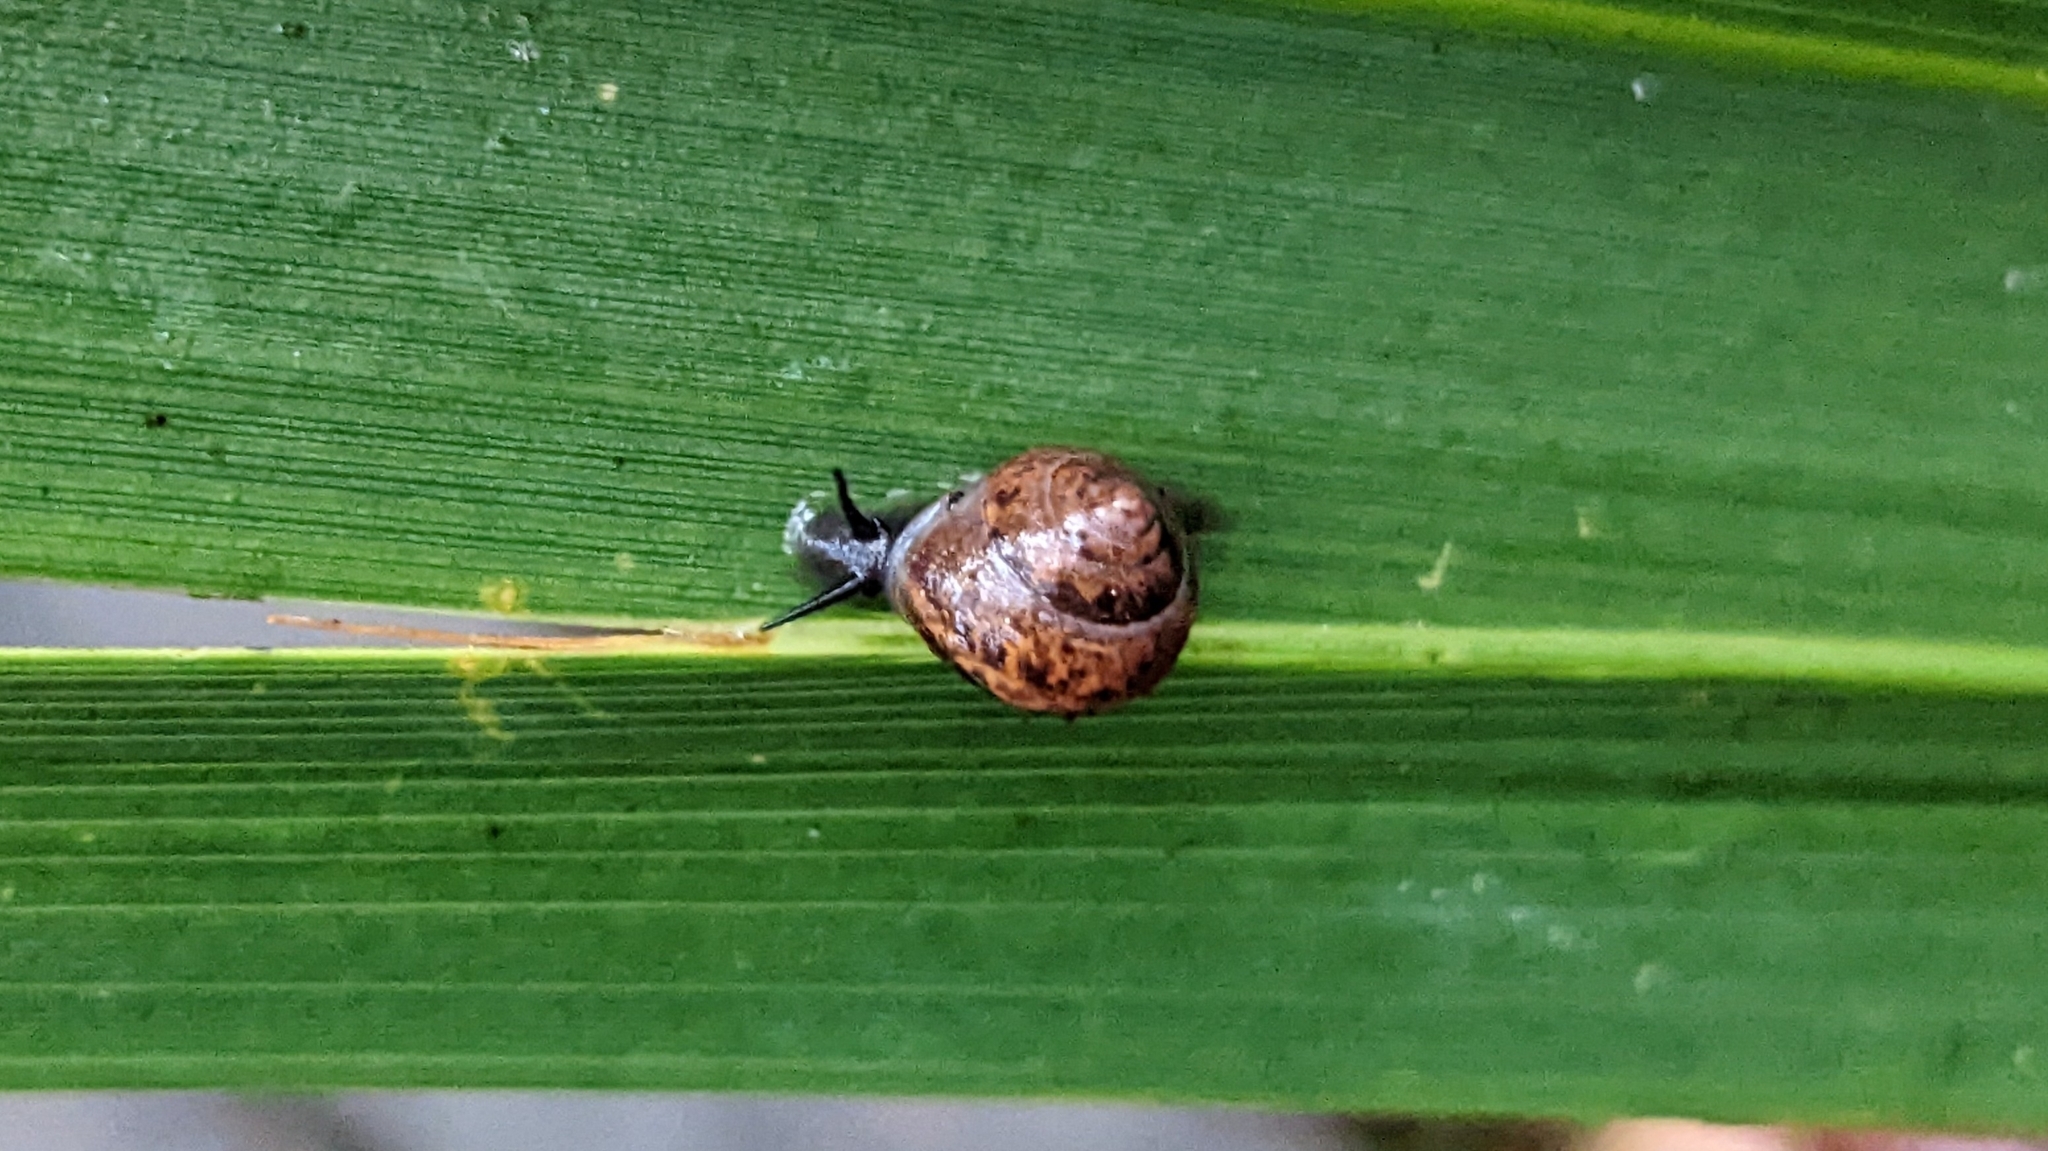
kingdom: Animalia
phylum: Mollusca
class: Gastropoda
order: Cycloneritida
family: Helicinidae
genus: Helicina
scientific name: Helicina orbiculata
